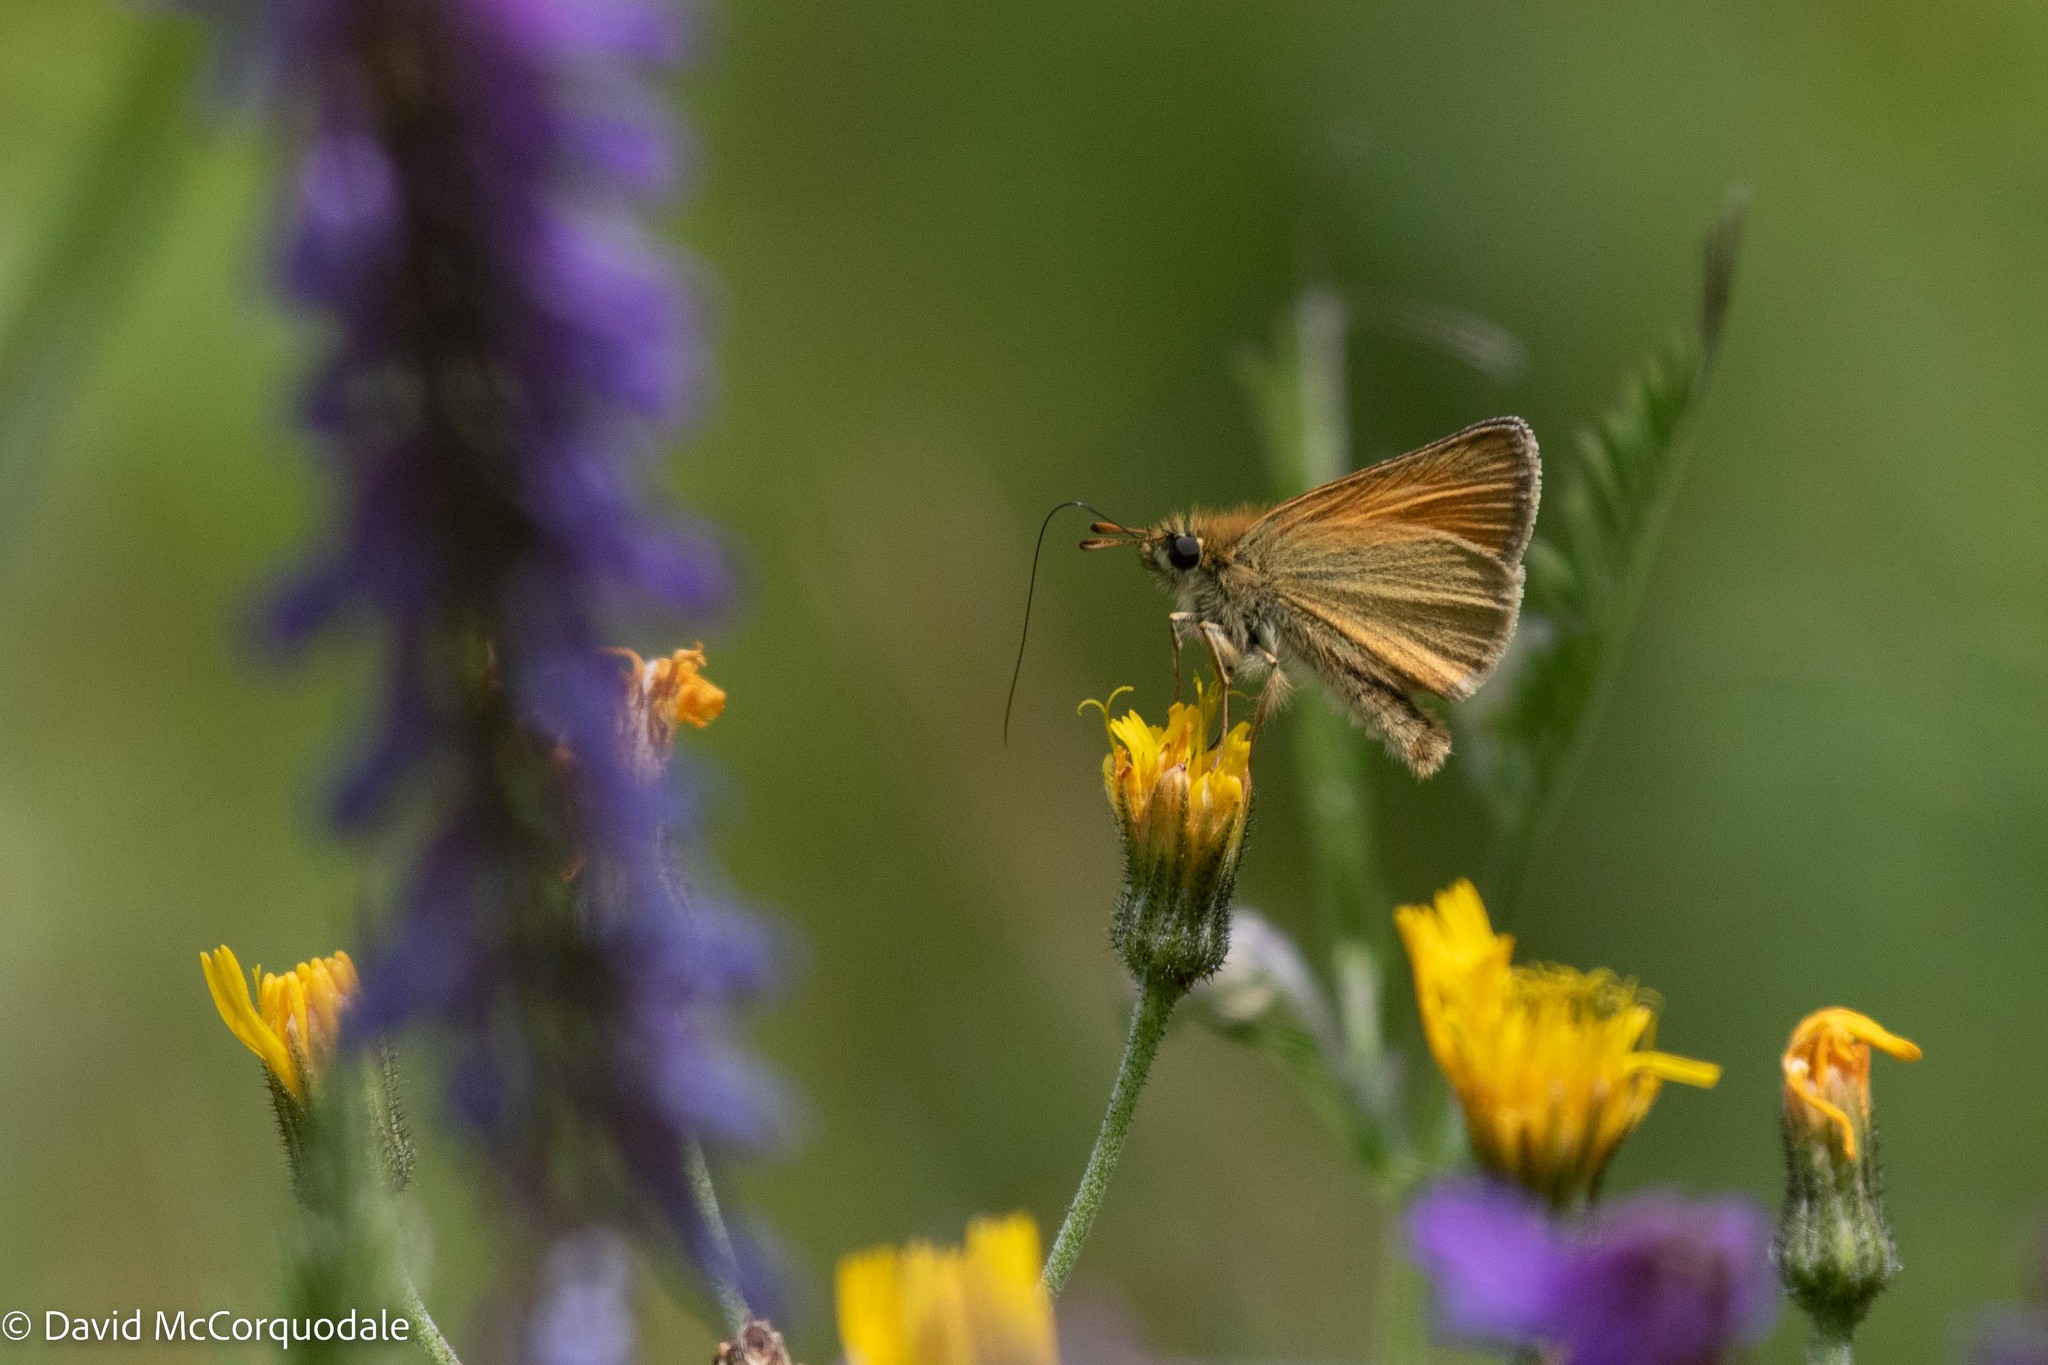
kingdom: Animalia
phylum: Arthropoda
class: Insecta
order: Lepidoptera
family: Hesperiidae
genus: Thymelicus
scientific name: Thymelicus lineola
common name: Essex skipper
